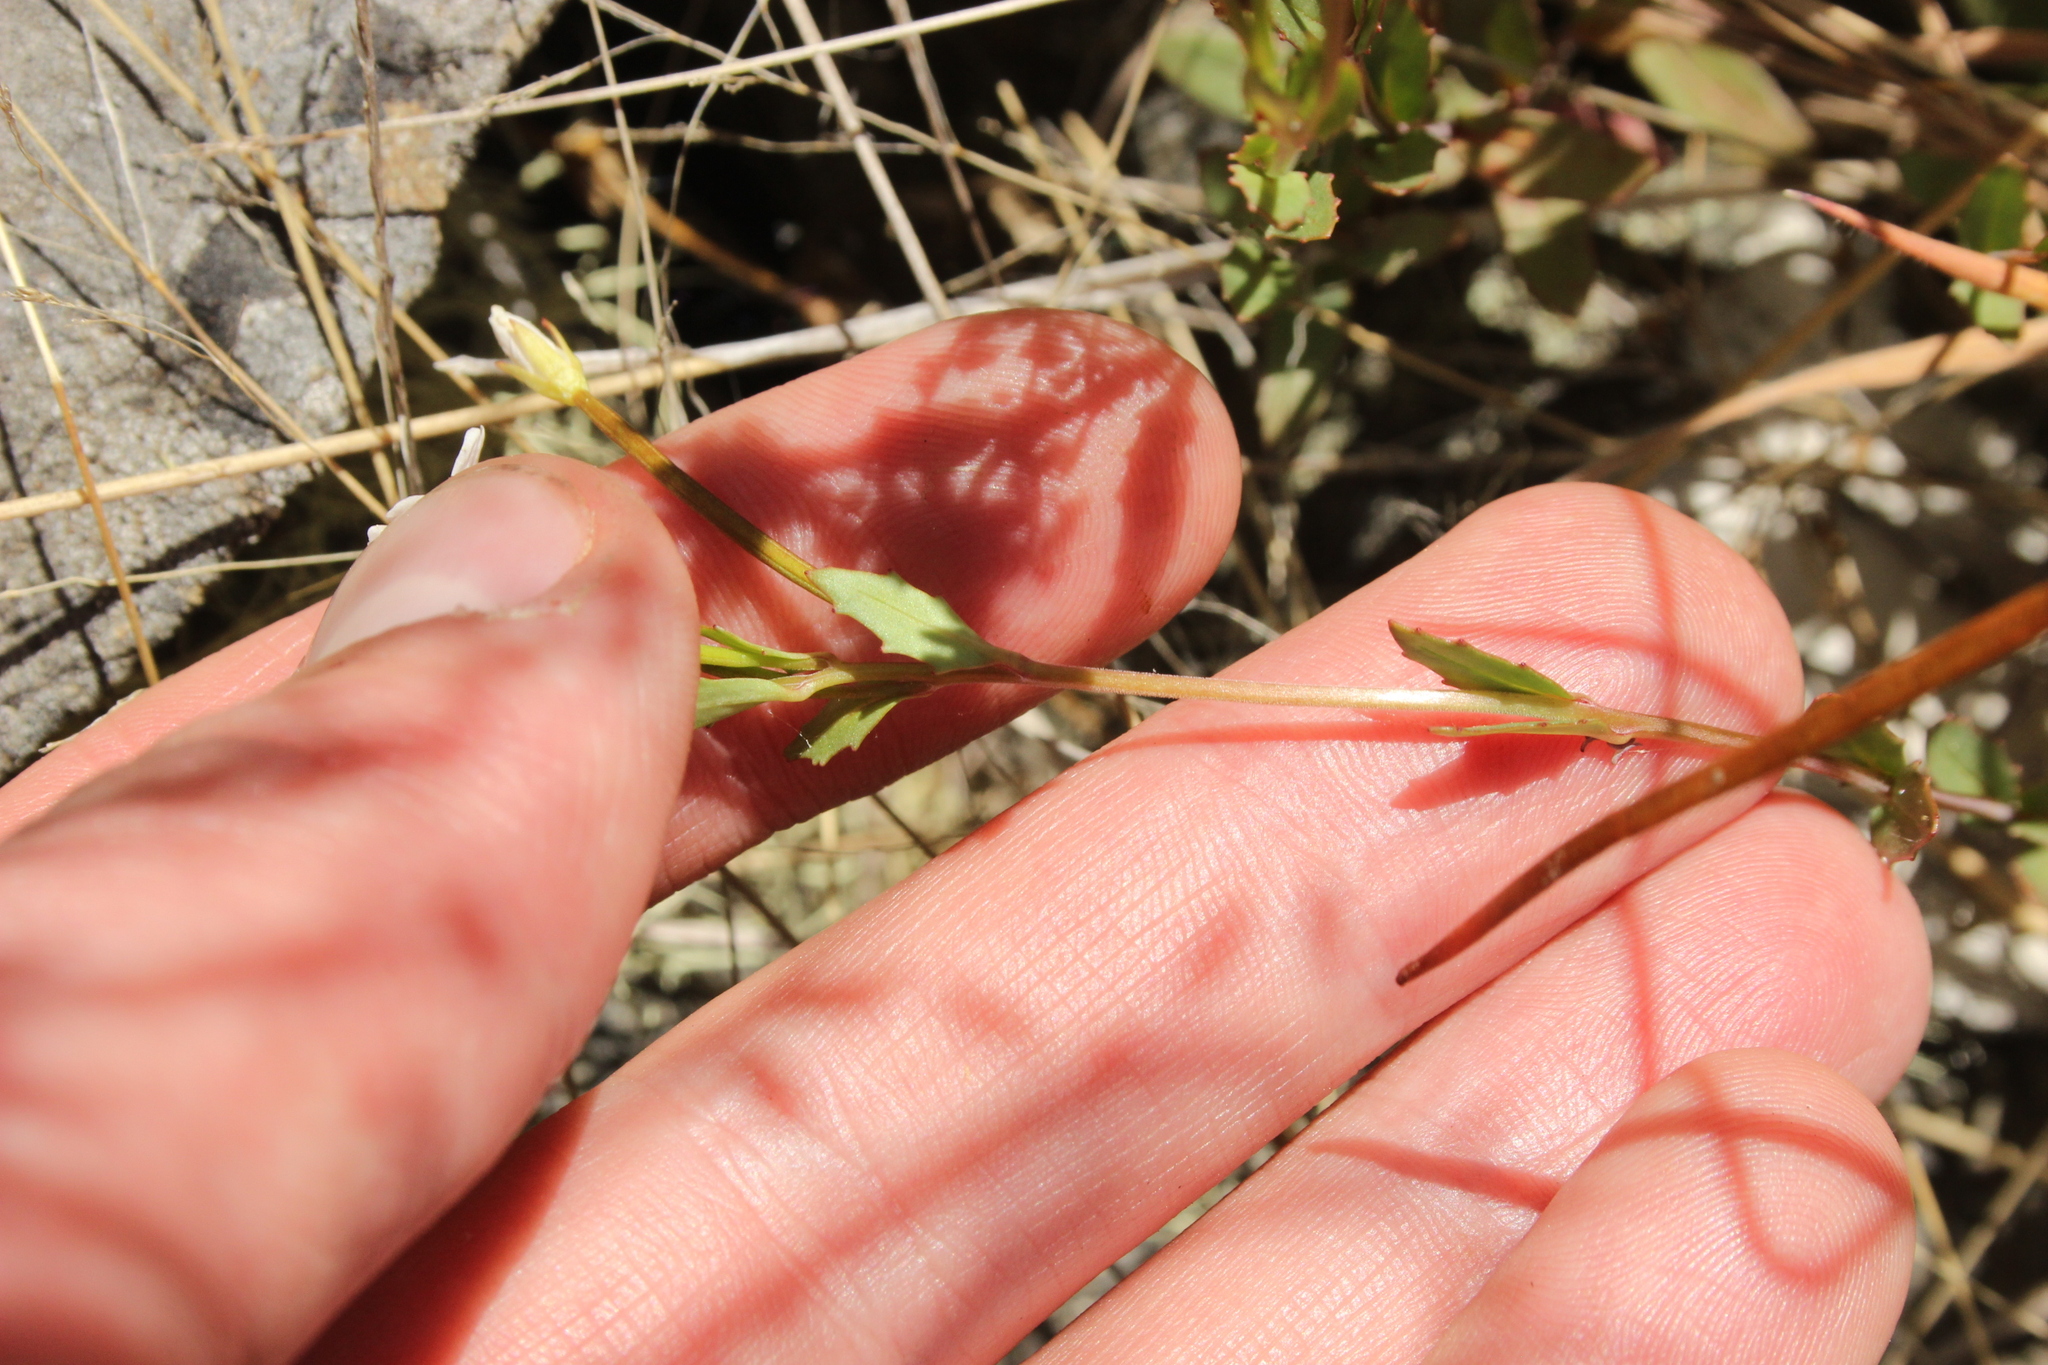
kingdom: Plantae
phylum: Tracheophyta
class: Magnoliopsida
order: Myrtales
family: Onagraceae
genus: Epilobium
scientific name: Epilobium alsinoides
